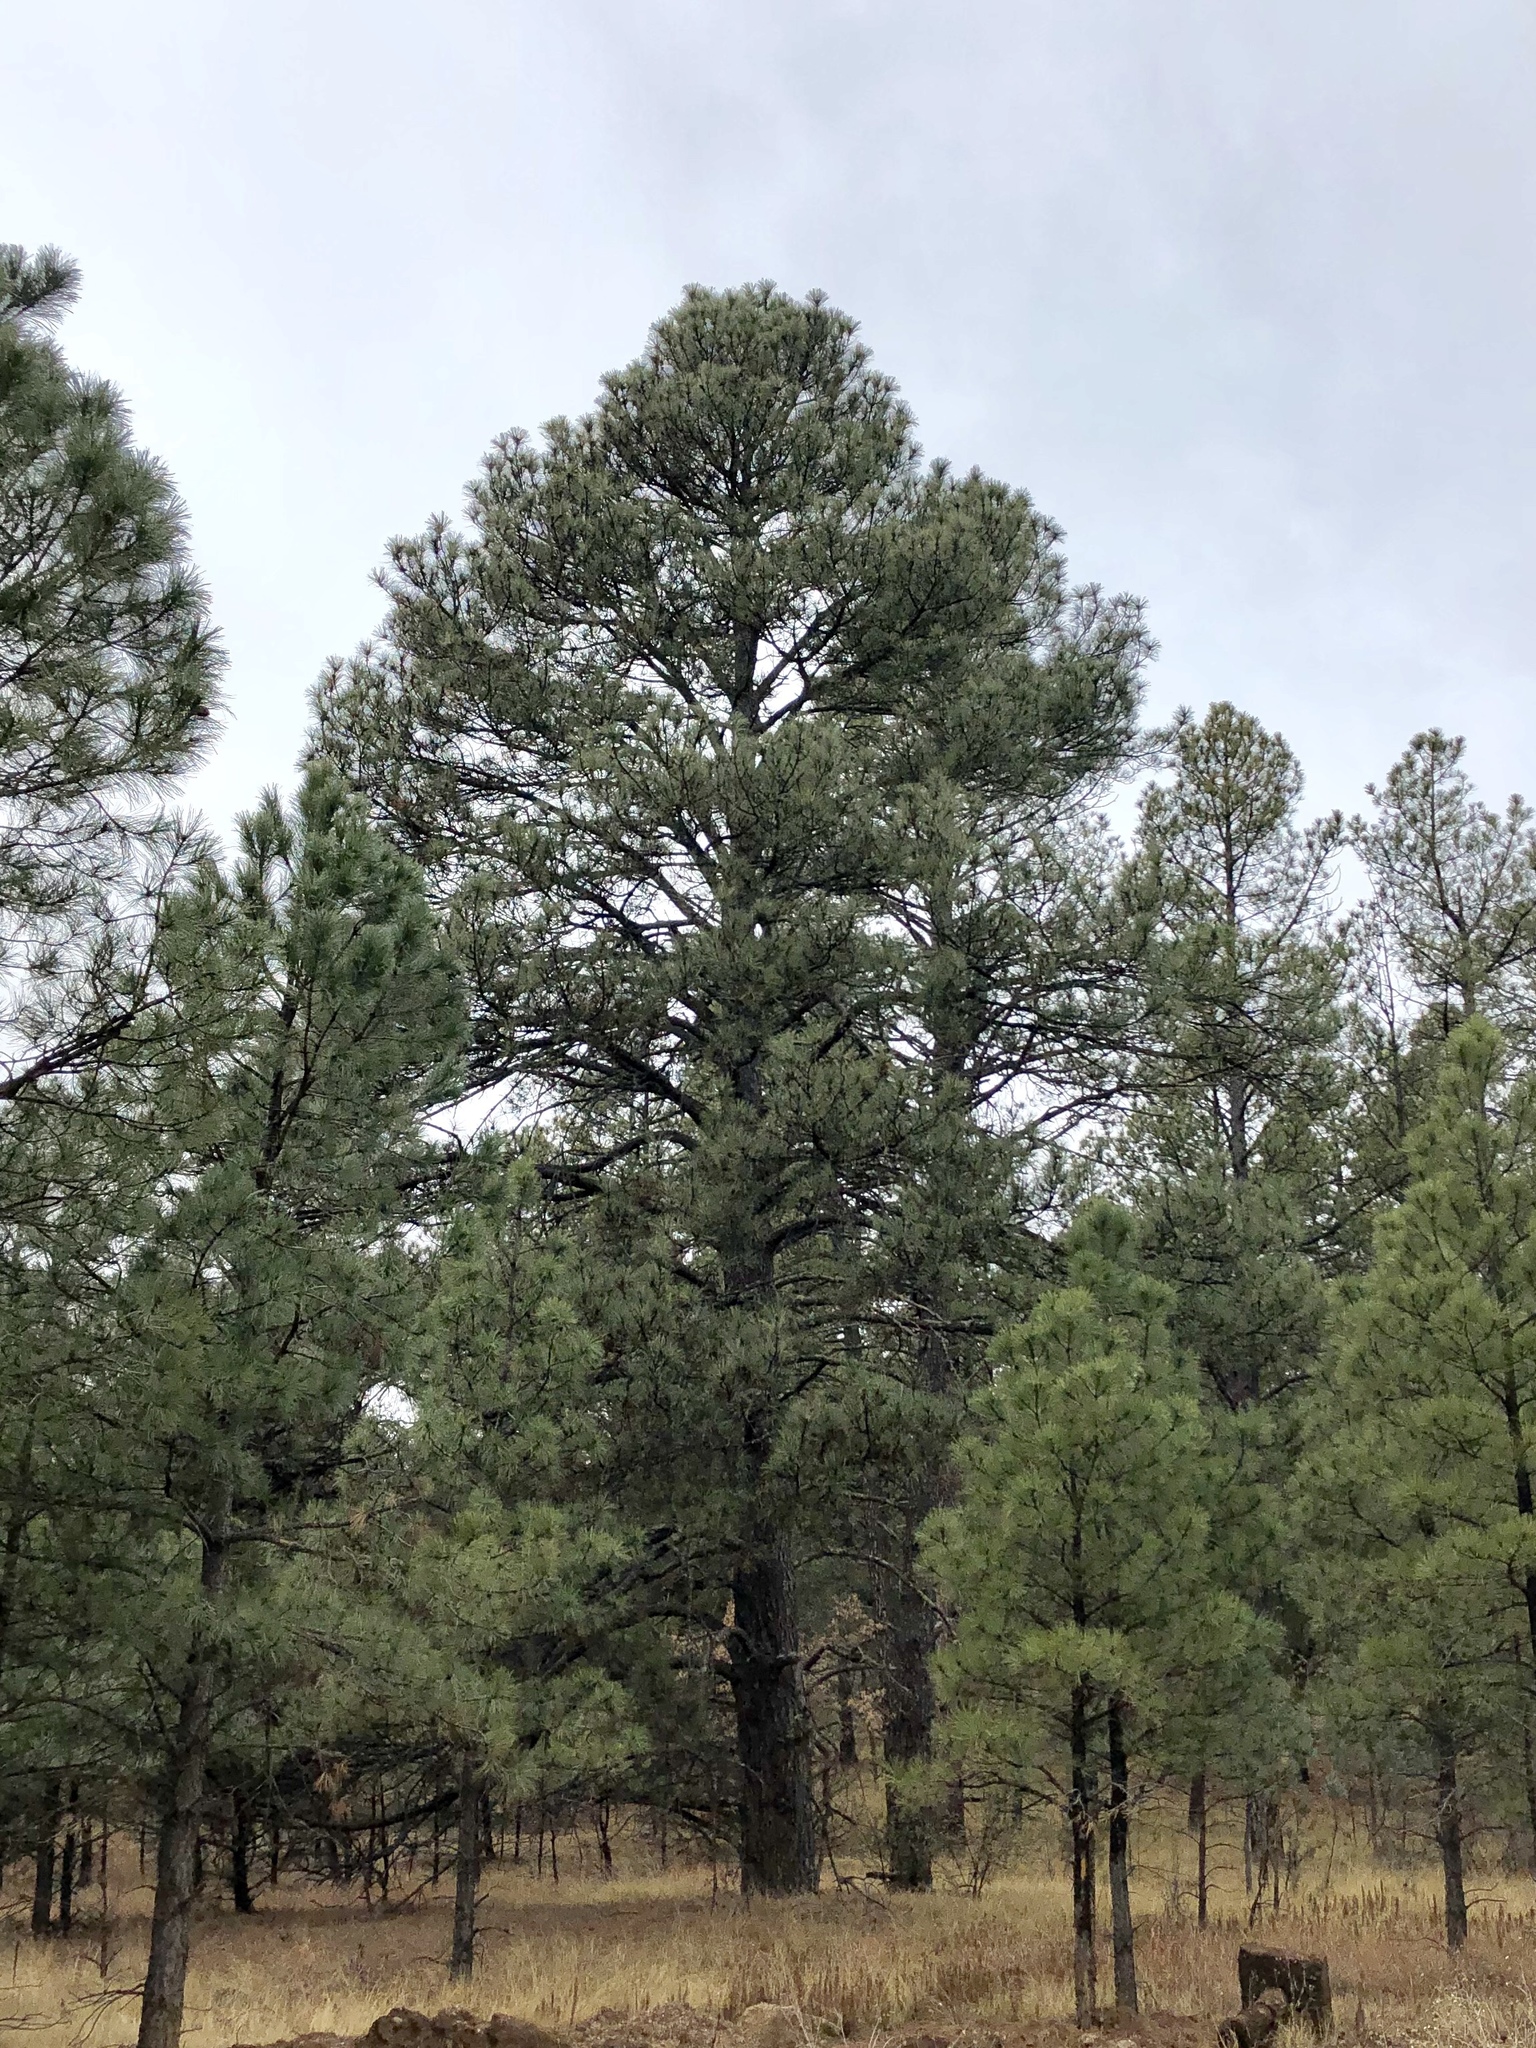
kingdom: Plantae
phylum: Tracheophyta
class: Pinopsida
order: Pinales
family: Pinaceae
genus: Pinus
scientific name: Pinus ponderosa
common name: Western yellow-pine
